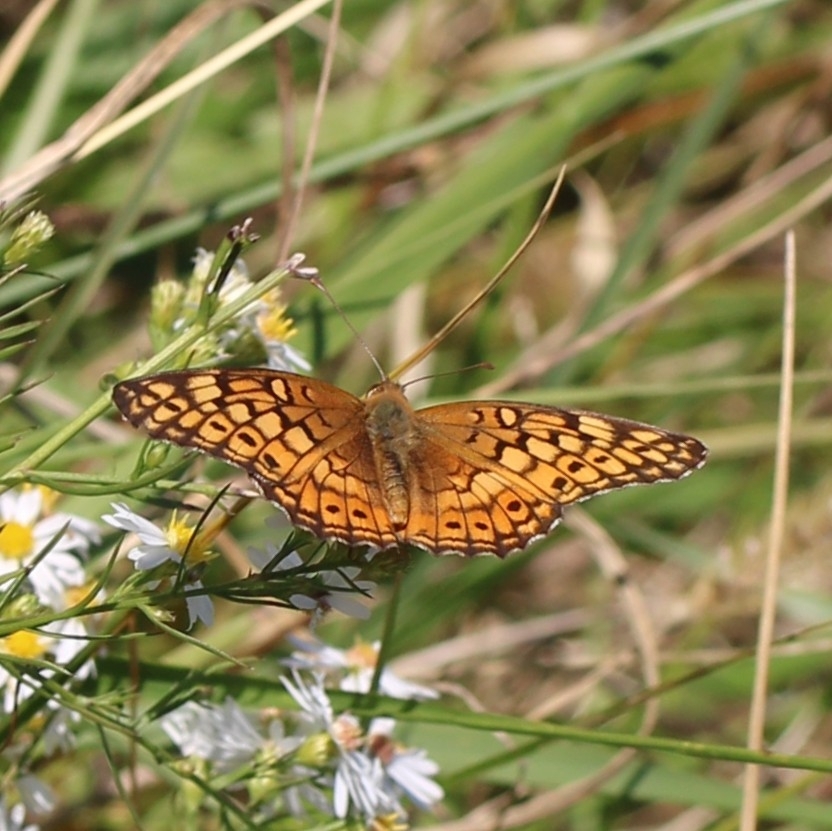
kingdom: Animalia
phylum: Arthropoda
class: Insecta
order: Lepidoptera
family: Nymphalidae
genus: Euptoieta
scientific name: Euptoieta claudia
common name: Variegated fritillary
